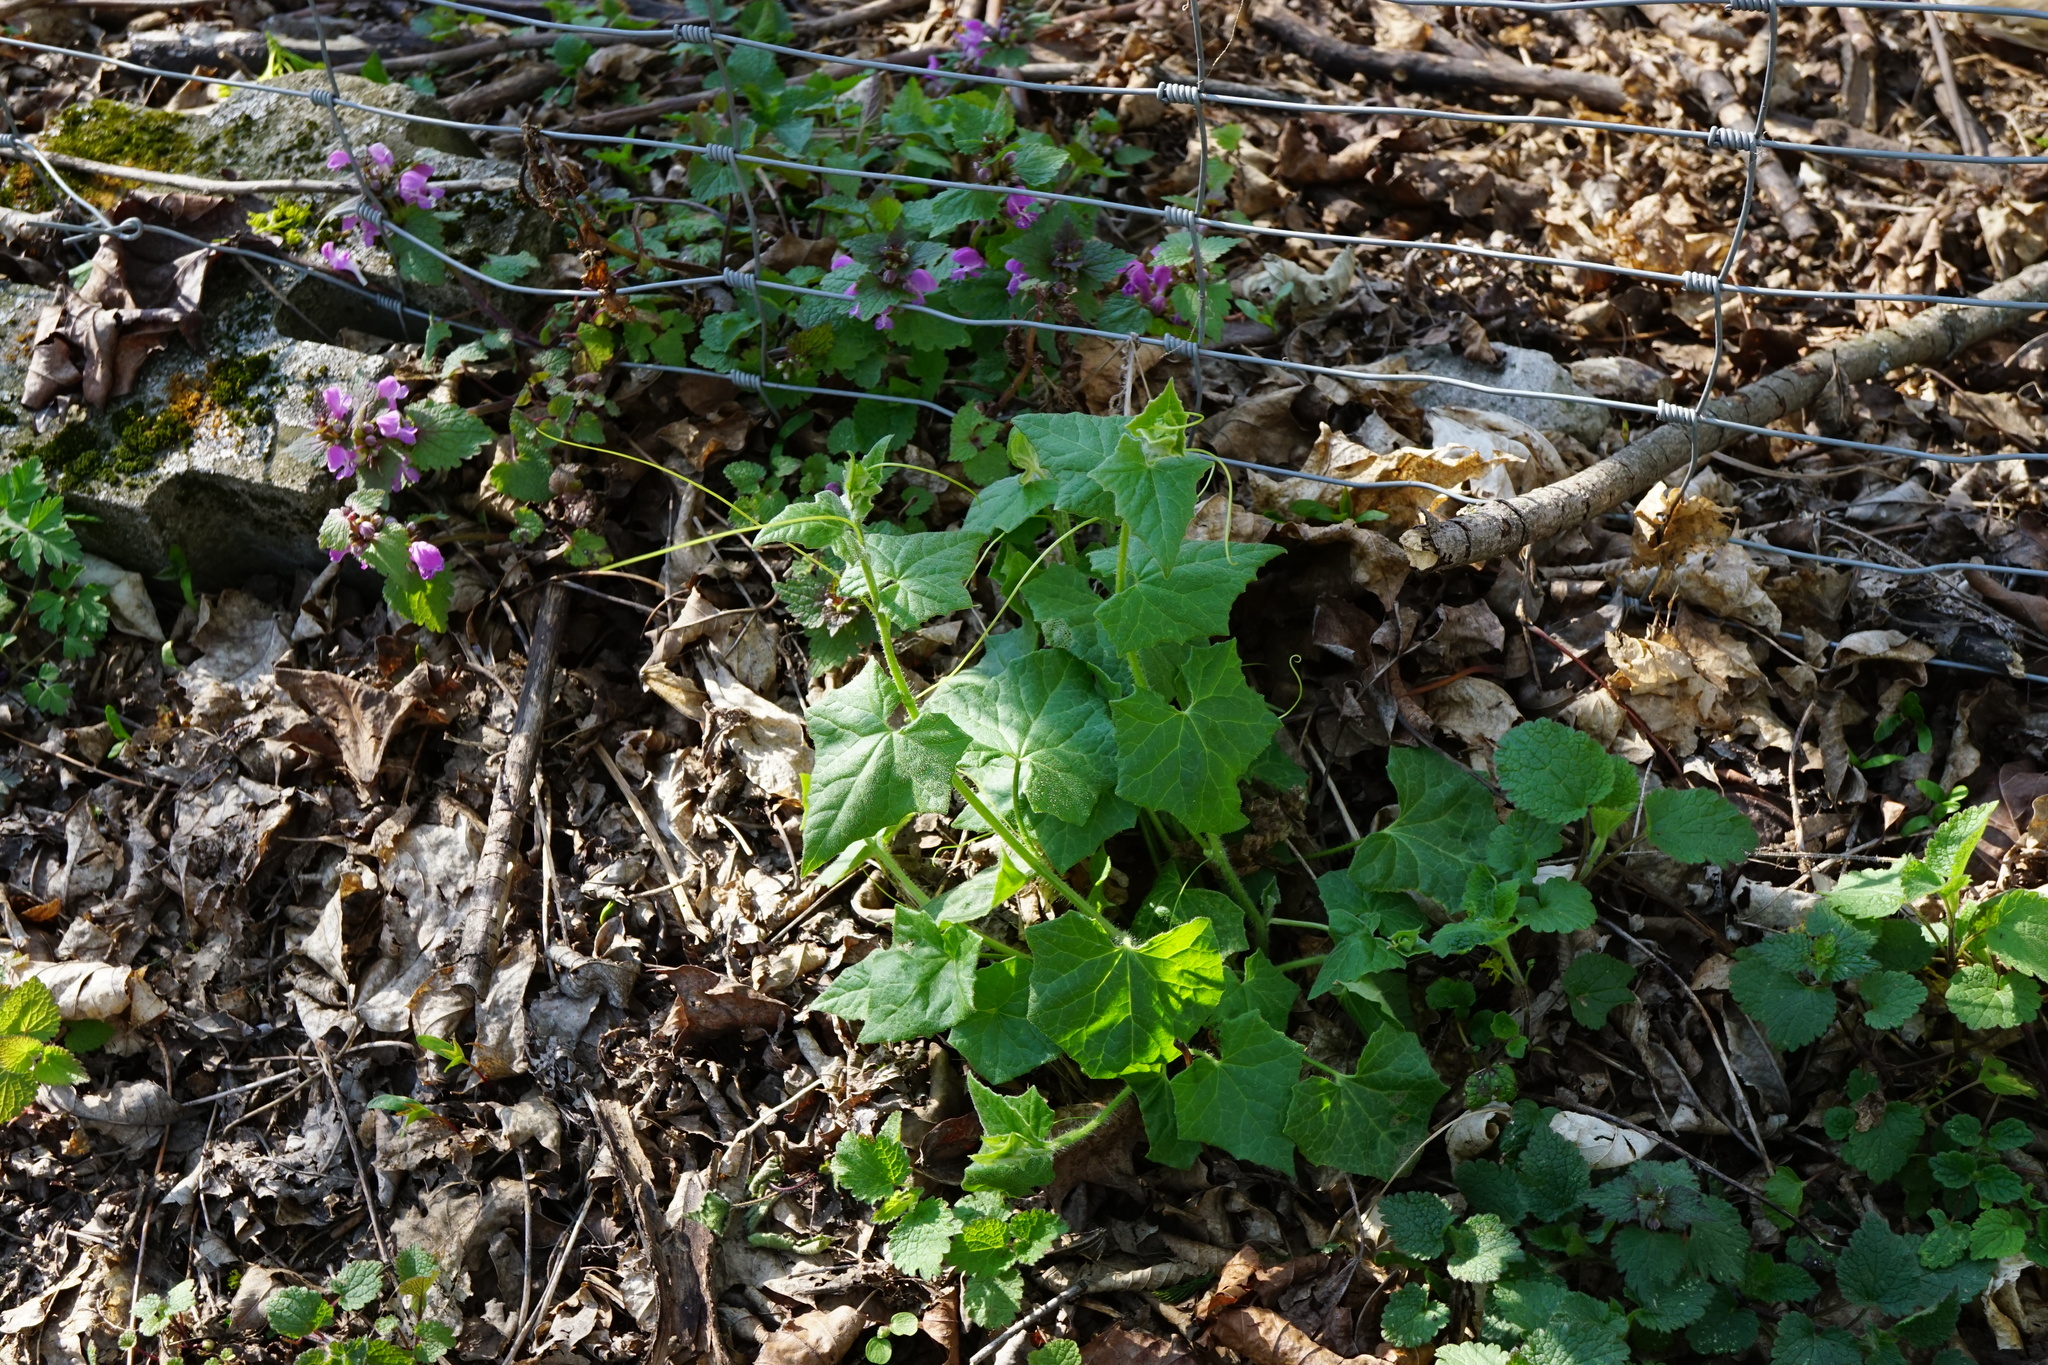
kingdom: Plantae
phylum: Tracheophyta
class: Magnoliopsida
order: Cucurbitales
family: Cucurbitaceae
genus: Bryonia
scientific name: Bryonia dioica
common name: White bryony
